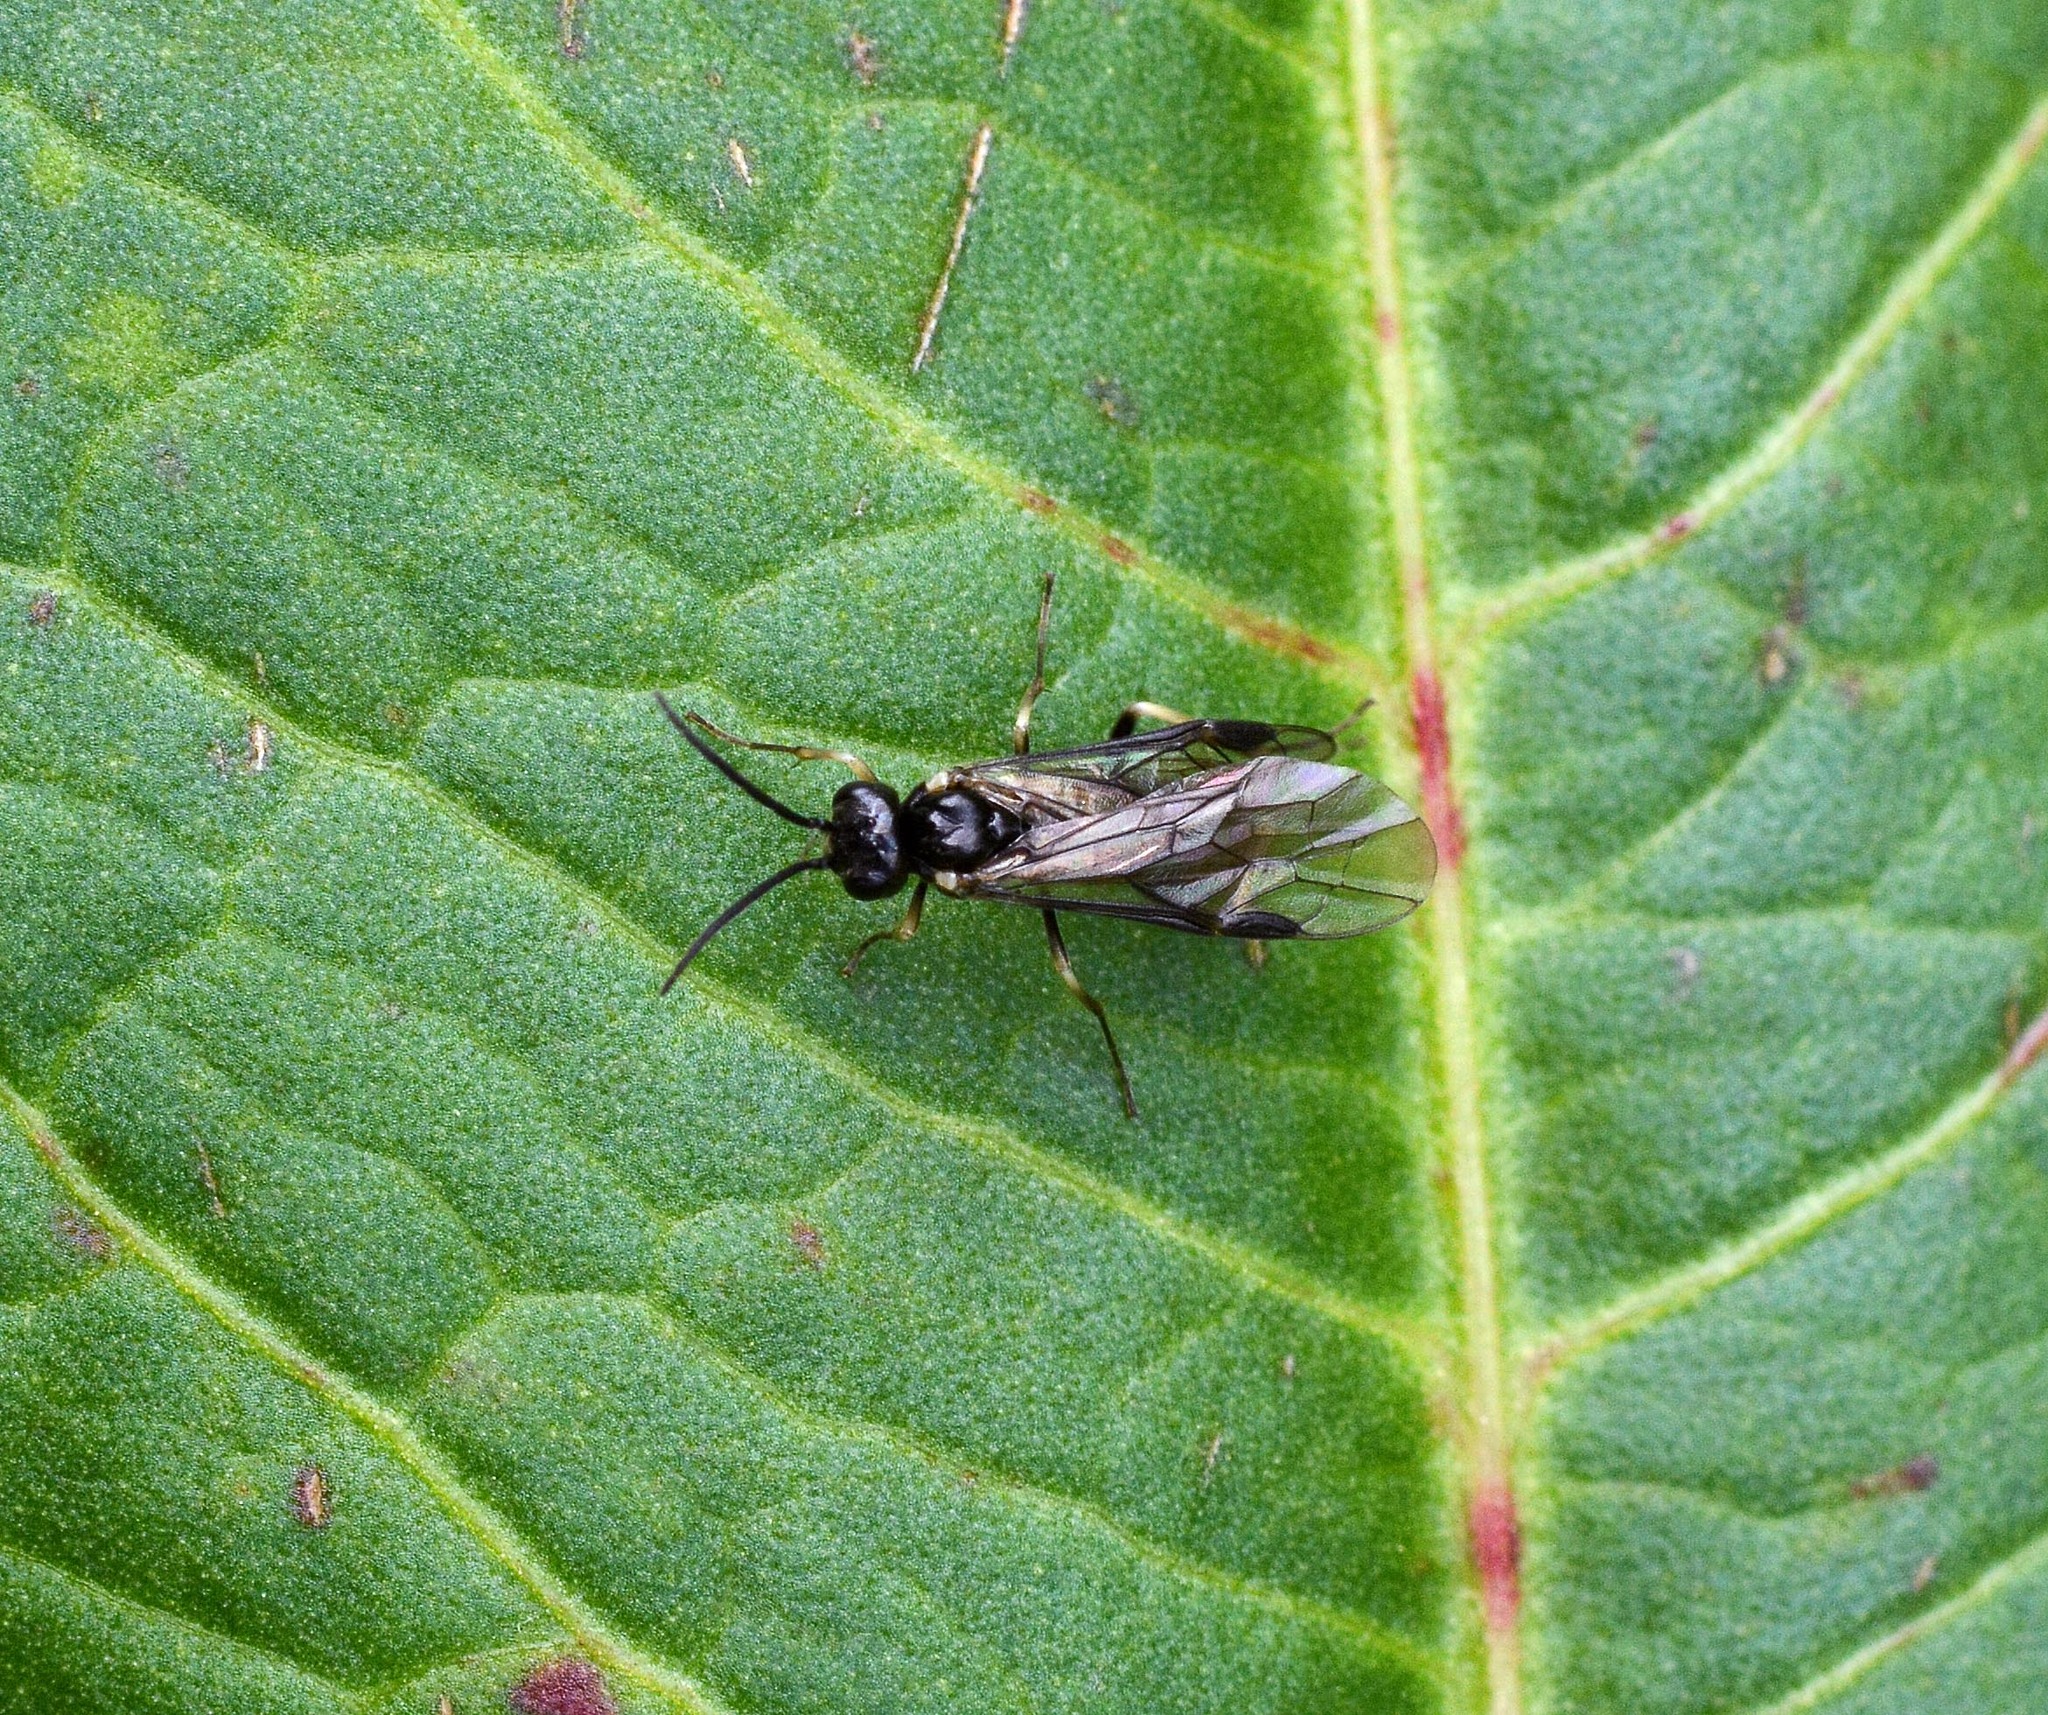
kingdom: Animalia
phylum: Arthropoda
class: Insecta
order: Hymenoptera
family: Tenthredinidae
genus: Ametastegia
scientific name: Ametastegia carpini
